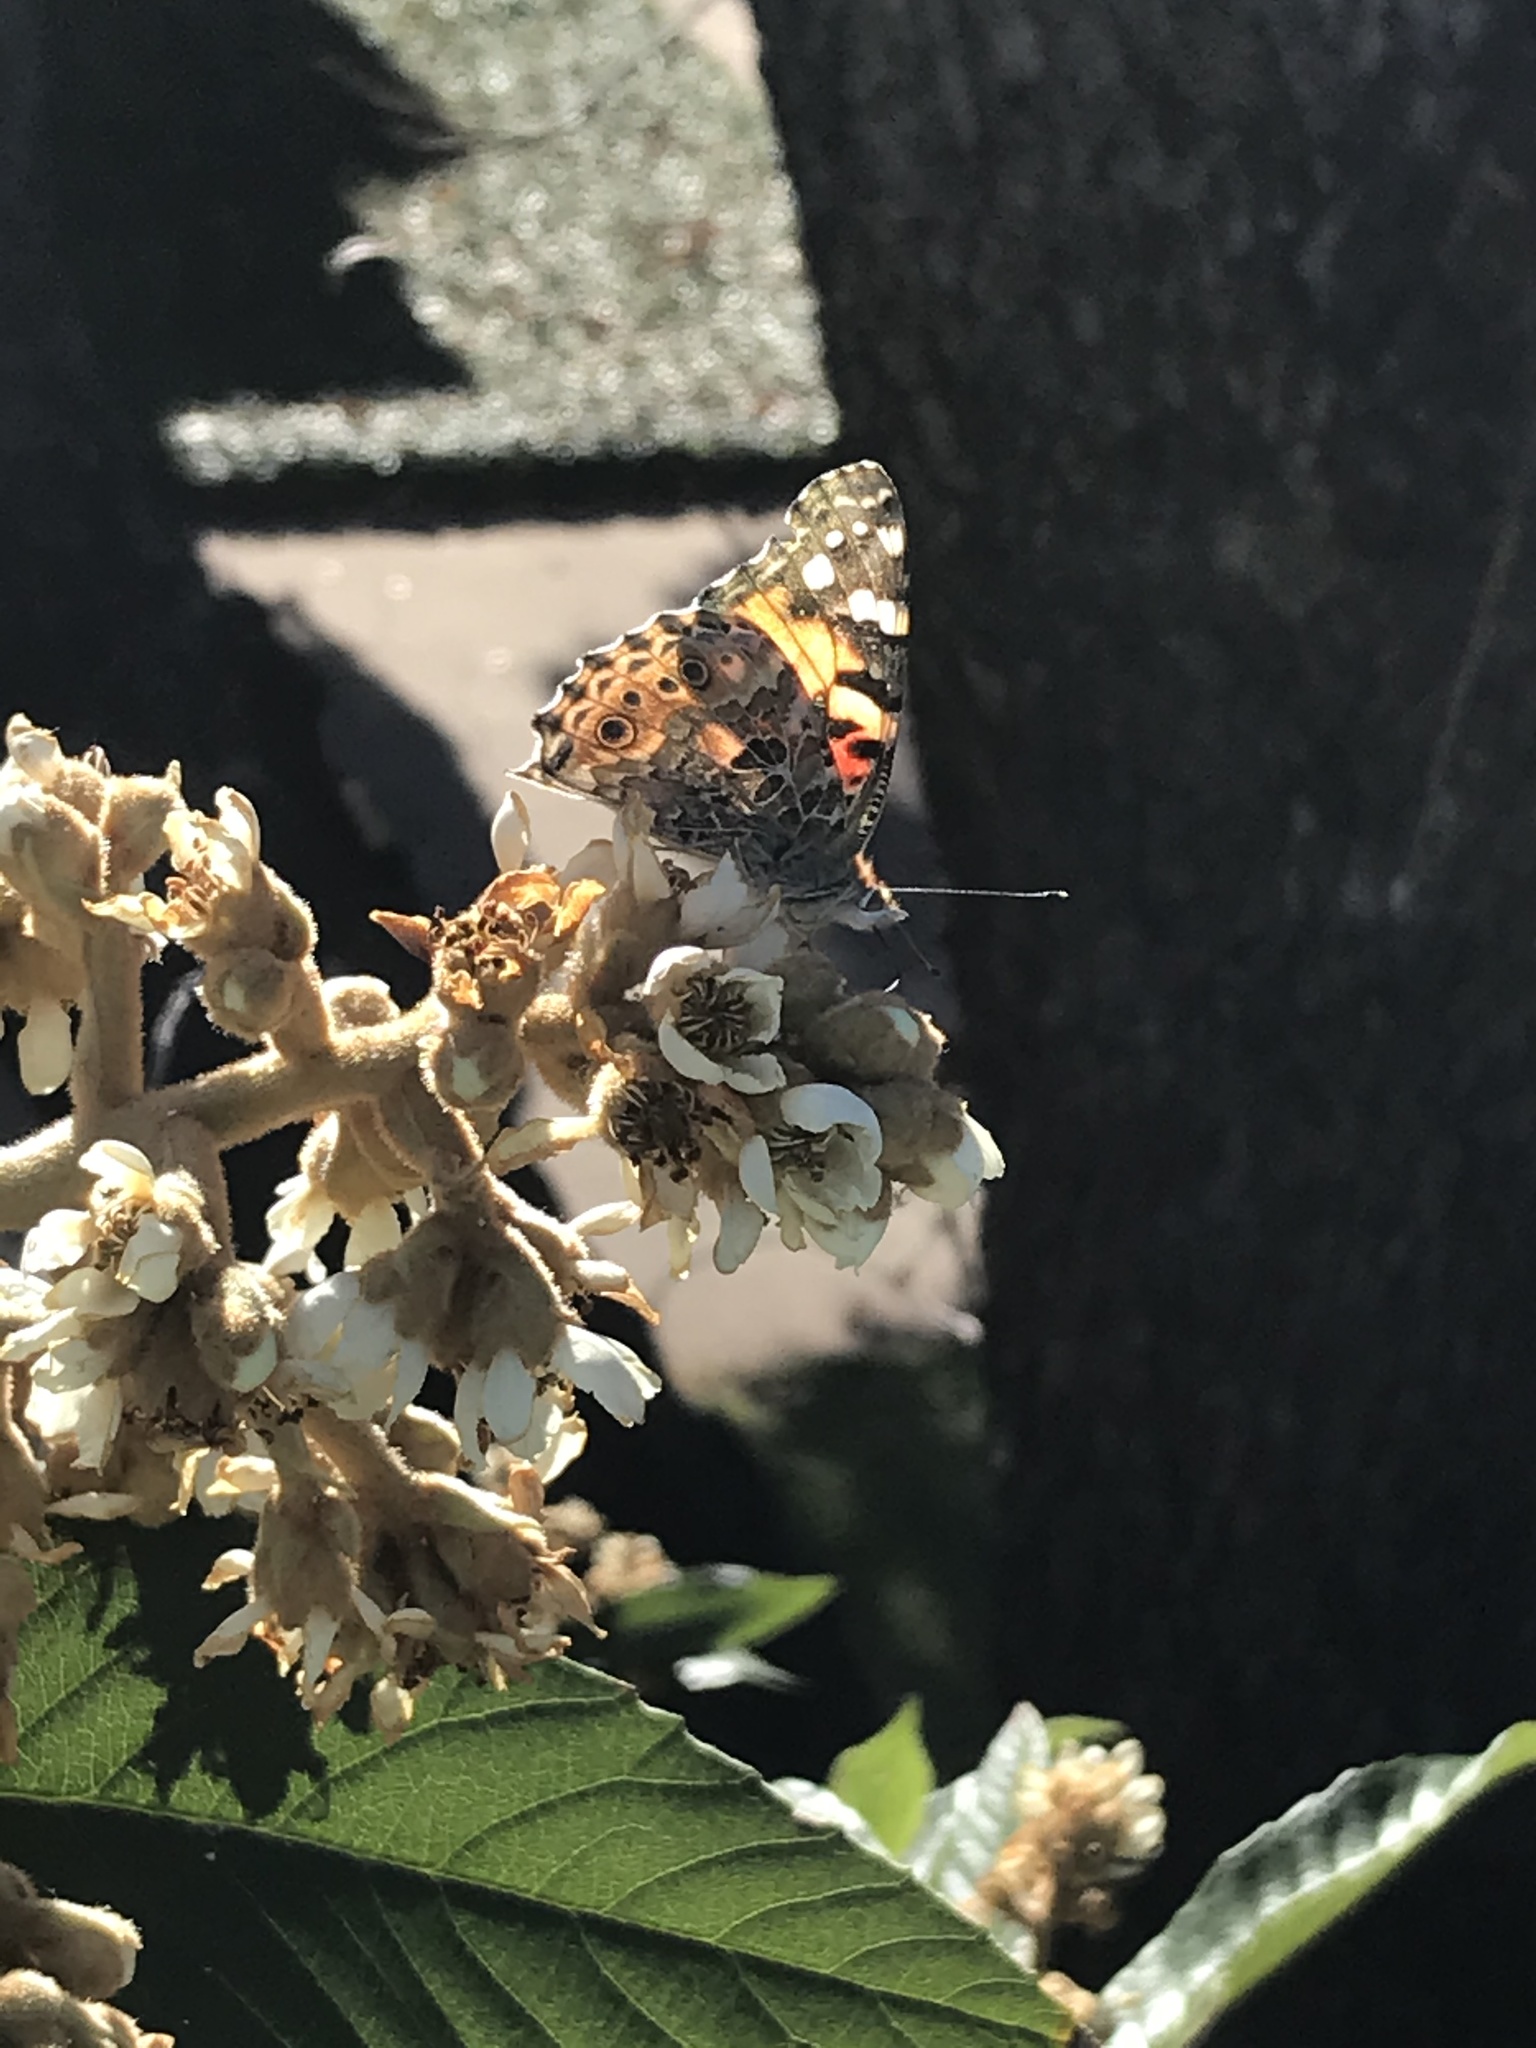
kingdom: Animalia
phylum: Arthropoda
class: Insecta
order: Lepidoptera
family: Nymphalidae
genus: Vanessa
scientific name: Vanessa cardui
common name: Painted lady
